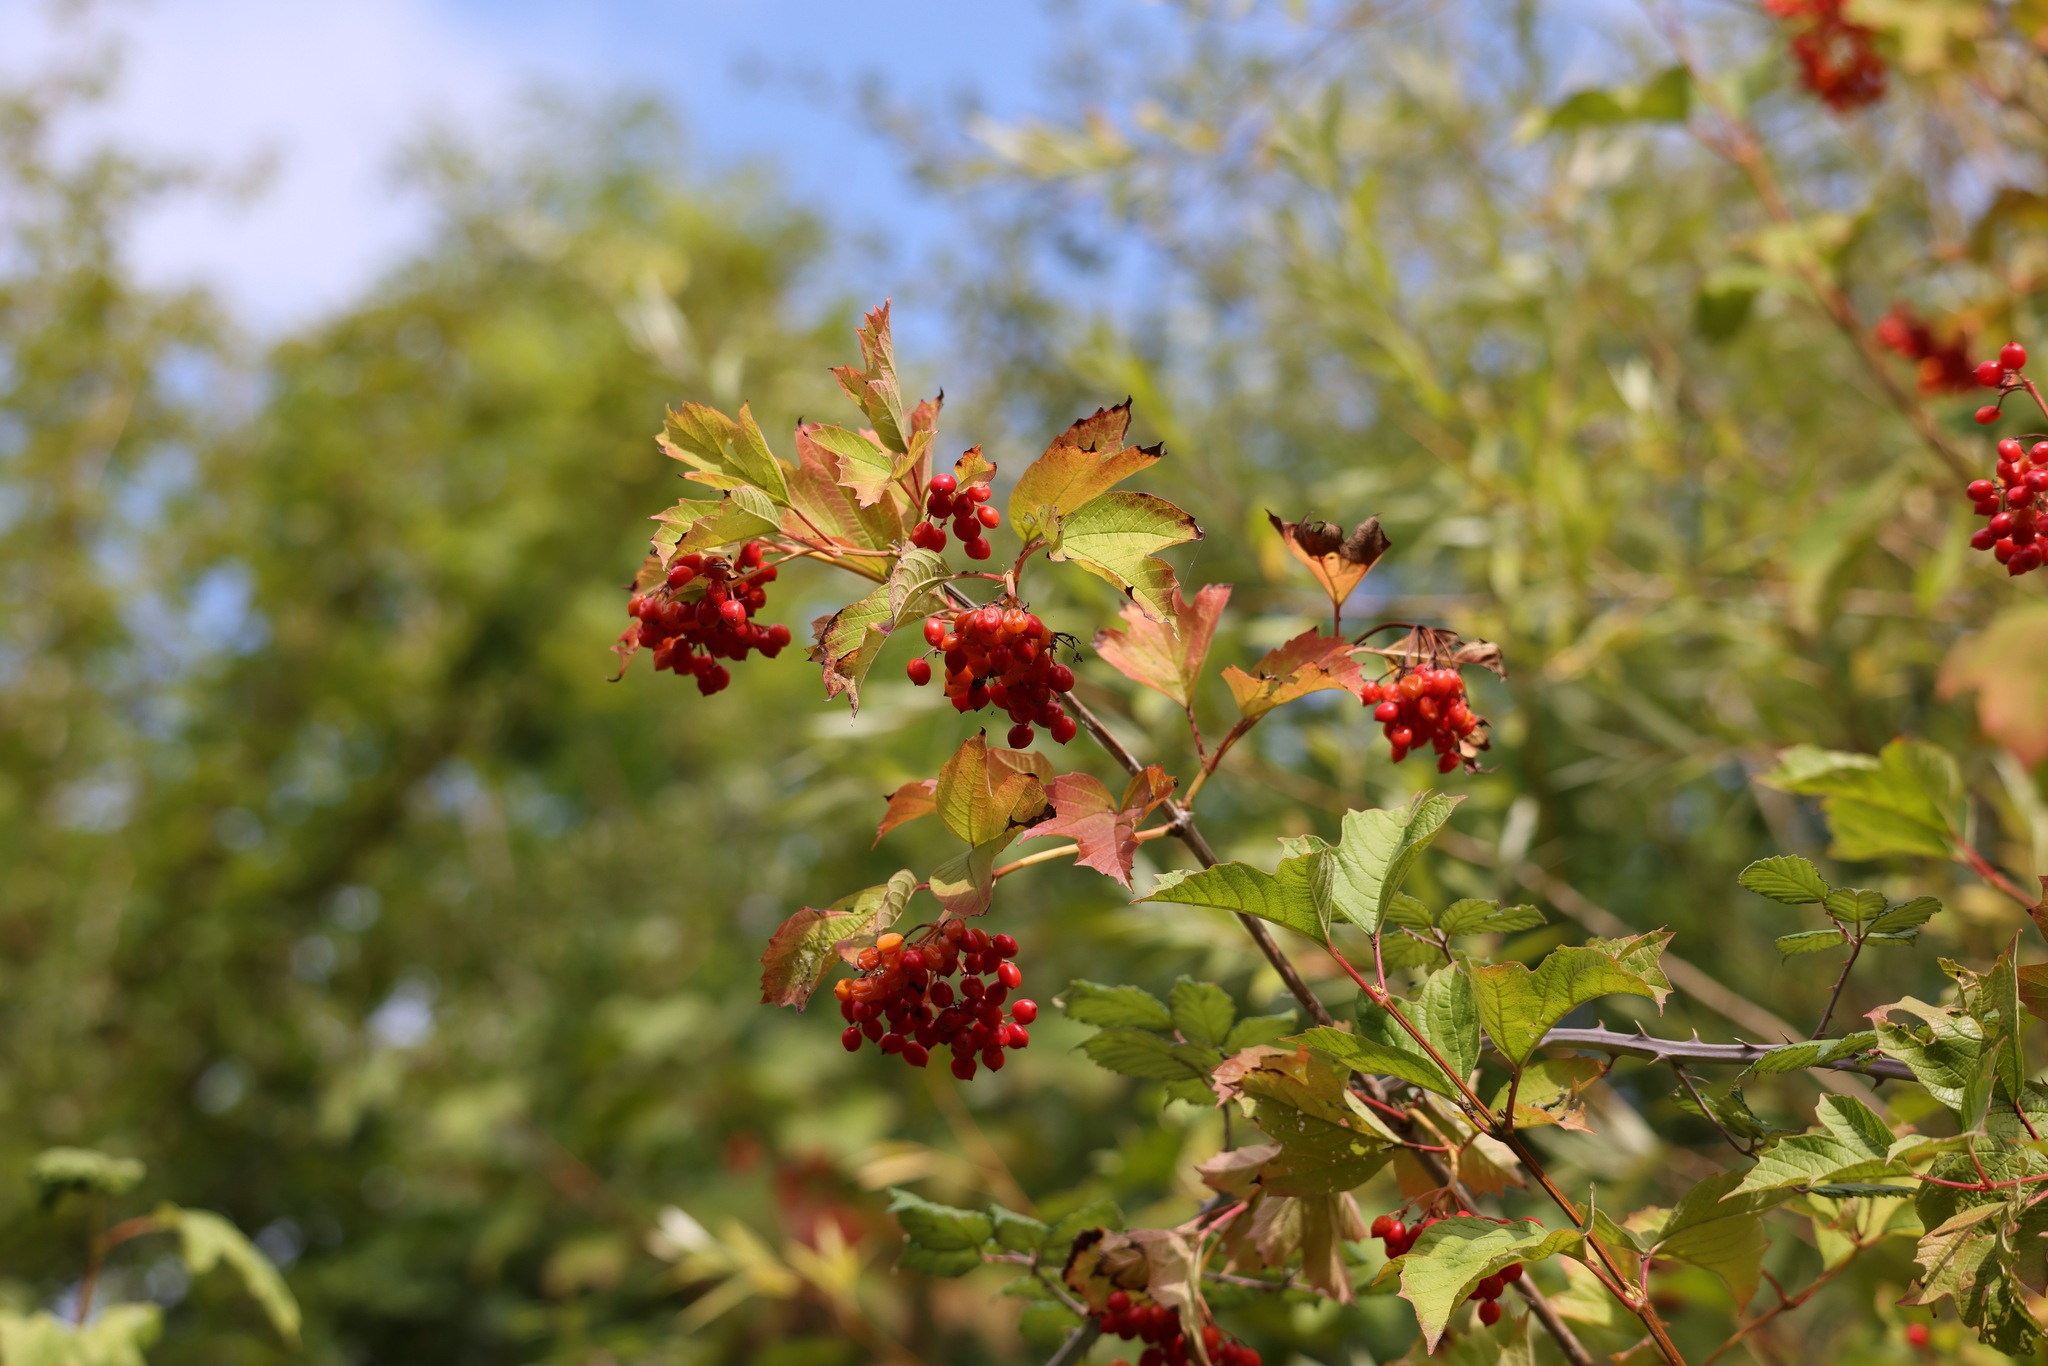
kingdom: Plantae
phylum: Tracheophyta
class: Magnoliopsida
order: Dipsacales
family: Viburnaceae
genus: Viburnum
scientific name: Viburnum opulus
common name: Guelder-rose
